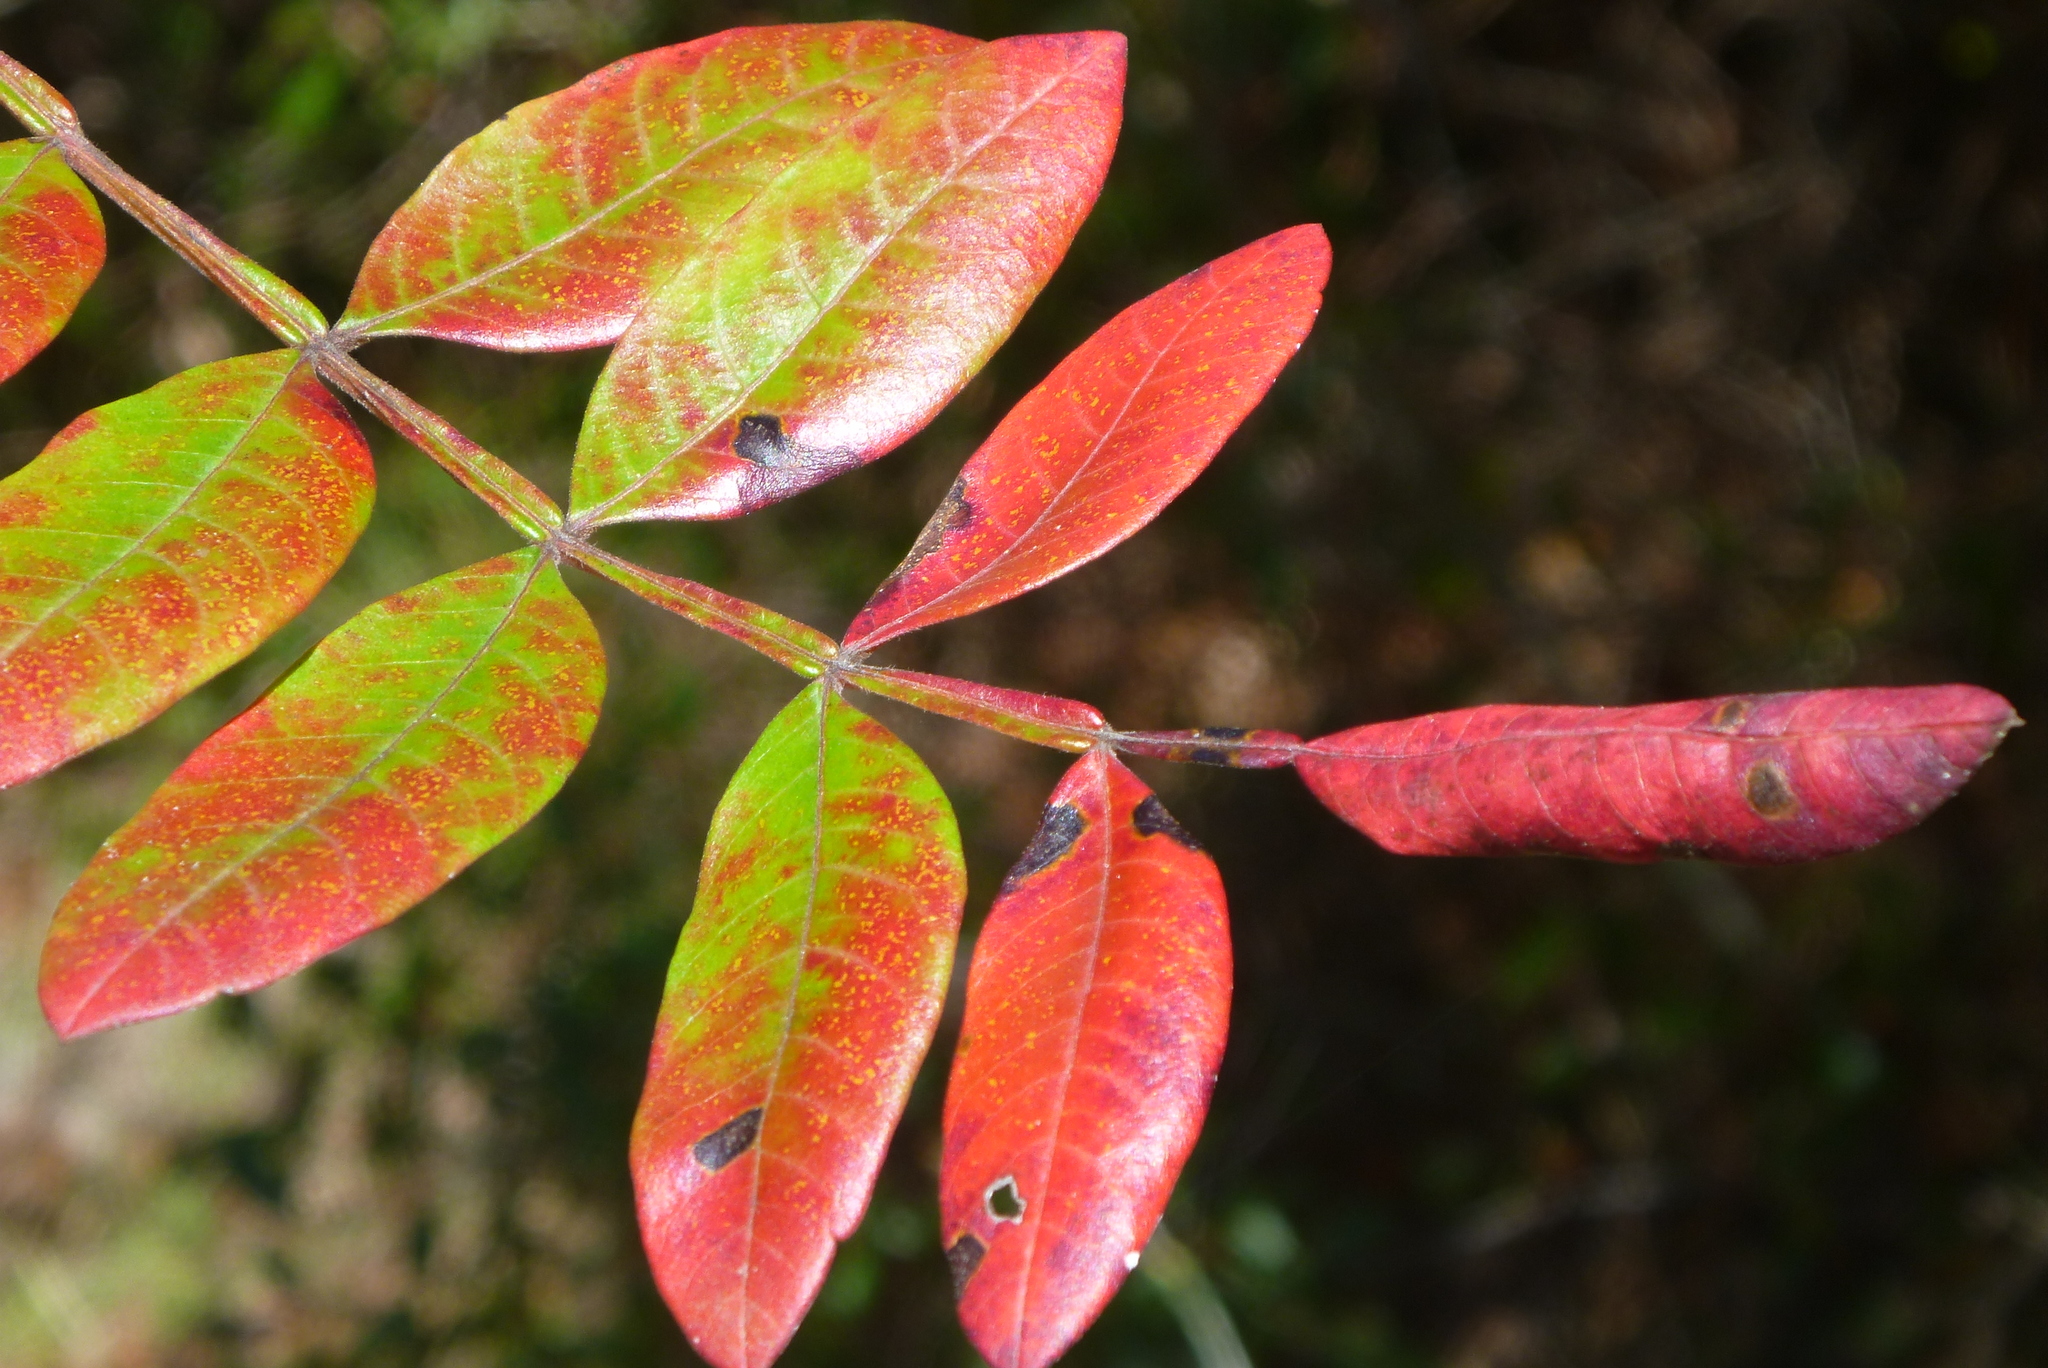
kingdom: Plantae
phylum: Tracheophyta
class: Magnoliopsida
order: Sapindales
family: Anacardiaceae
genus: Rhus
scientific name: Rhus copallina
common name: Shining sumac
